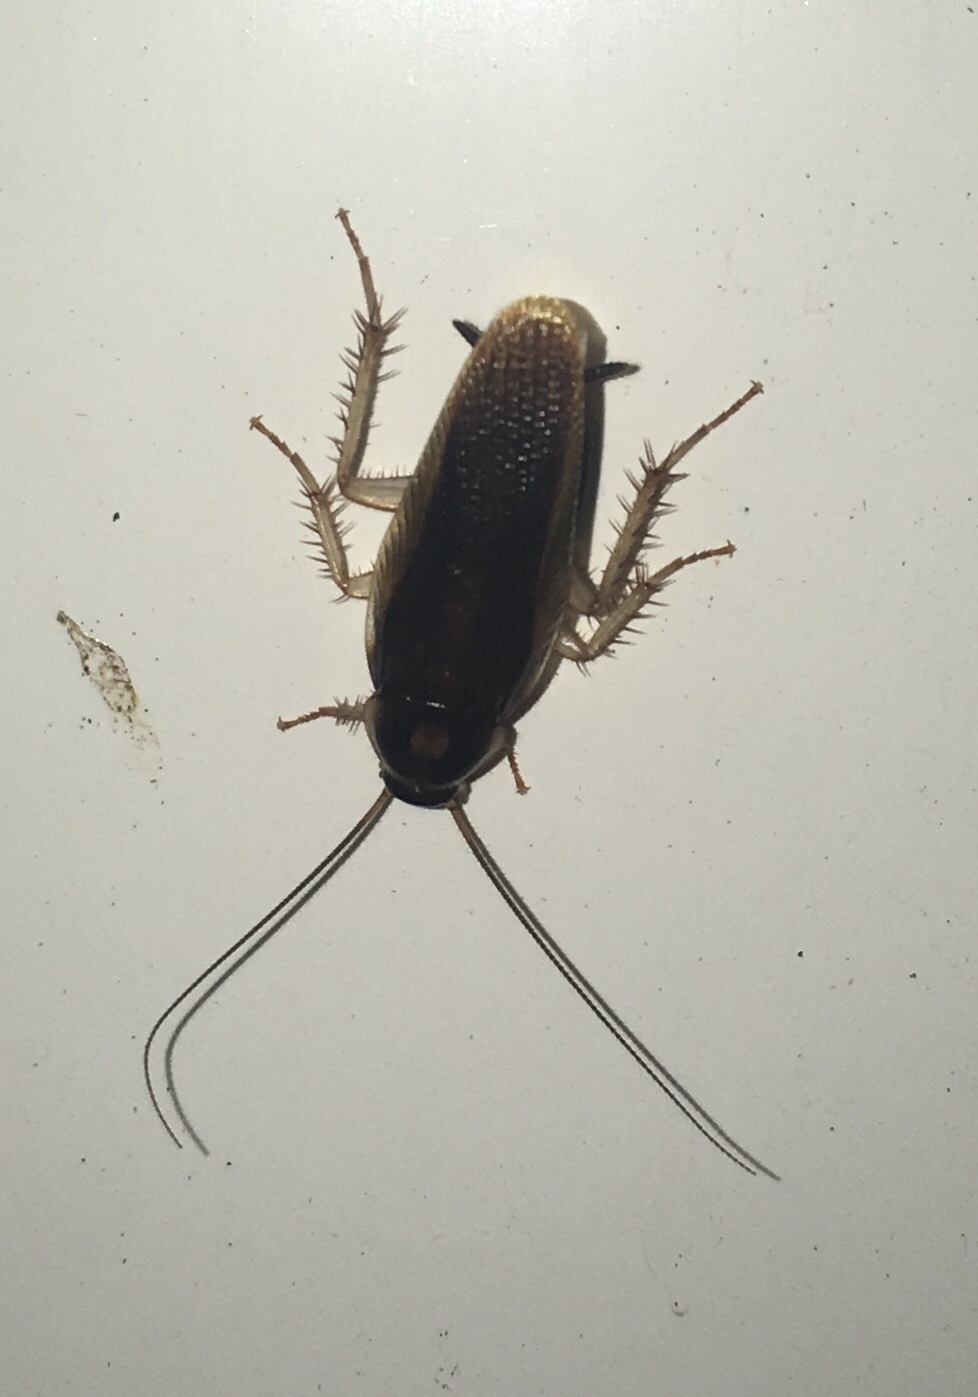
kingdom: Animalia
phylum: Arthropoda
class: Insecta
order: Blattodea
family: Ectobiidae
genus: Ischnoptera
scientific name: Ischnoptera bilunata
